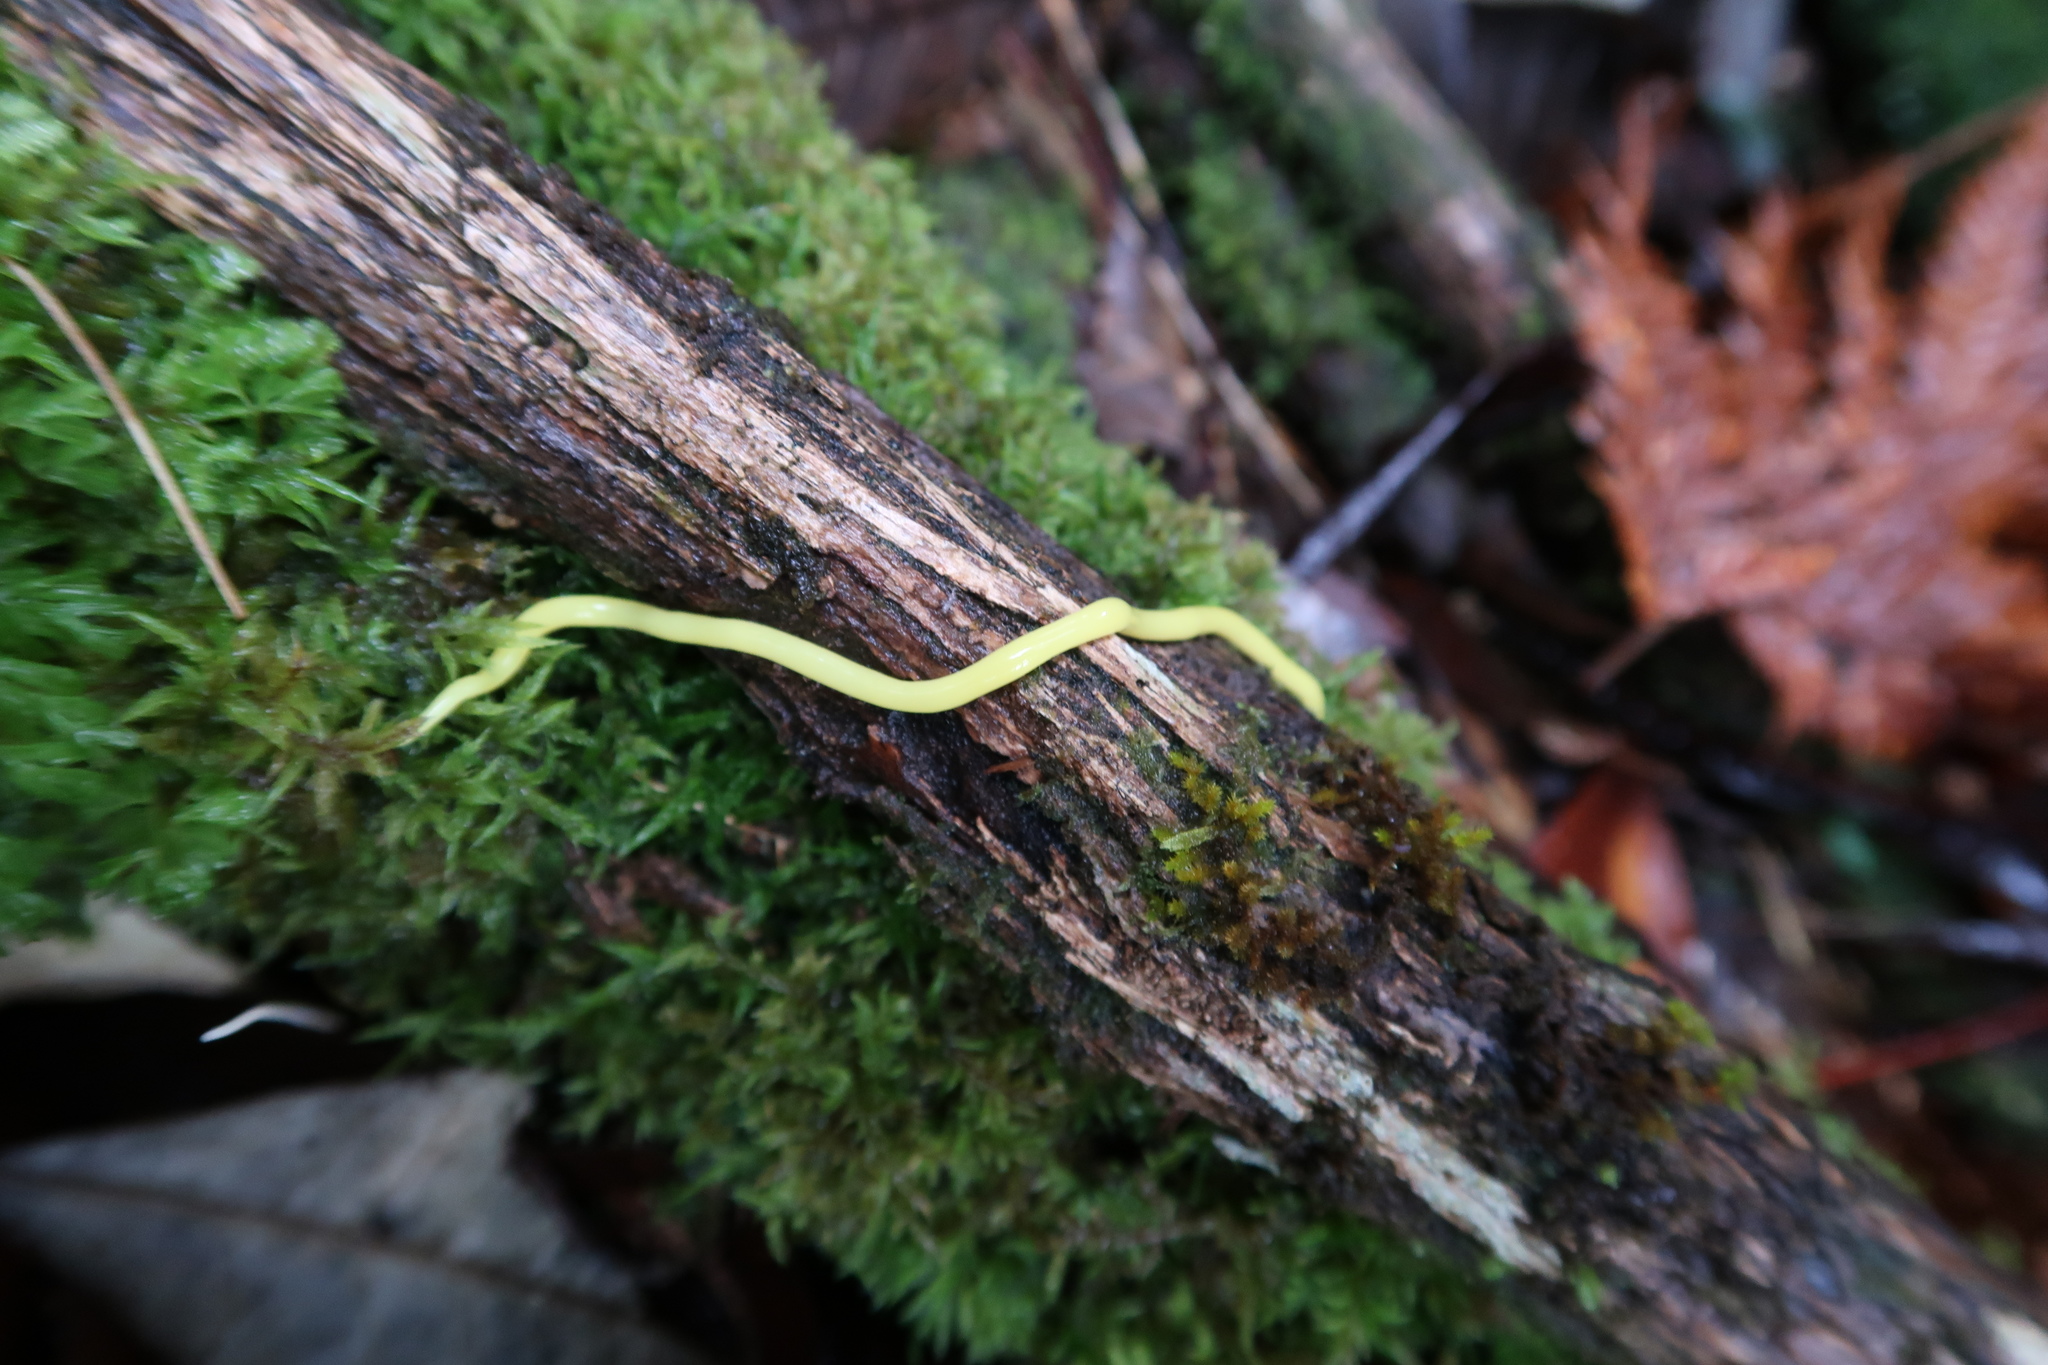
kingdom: Animalia
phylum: Platyhelminthes
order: Tricladida
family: Geoplanidae
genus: Fletchamia
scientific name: Fletchamia sugdeni
